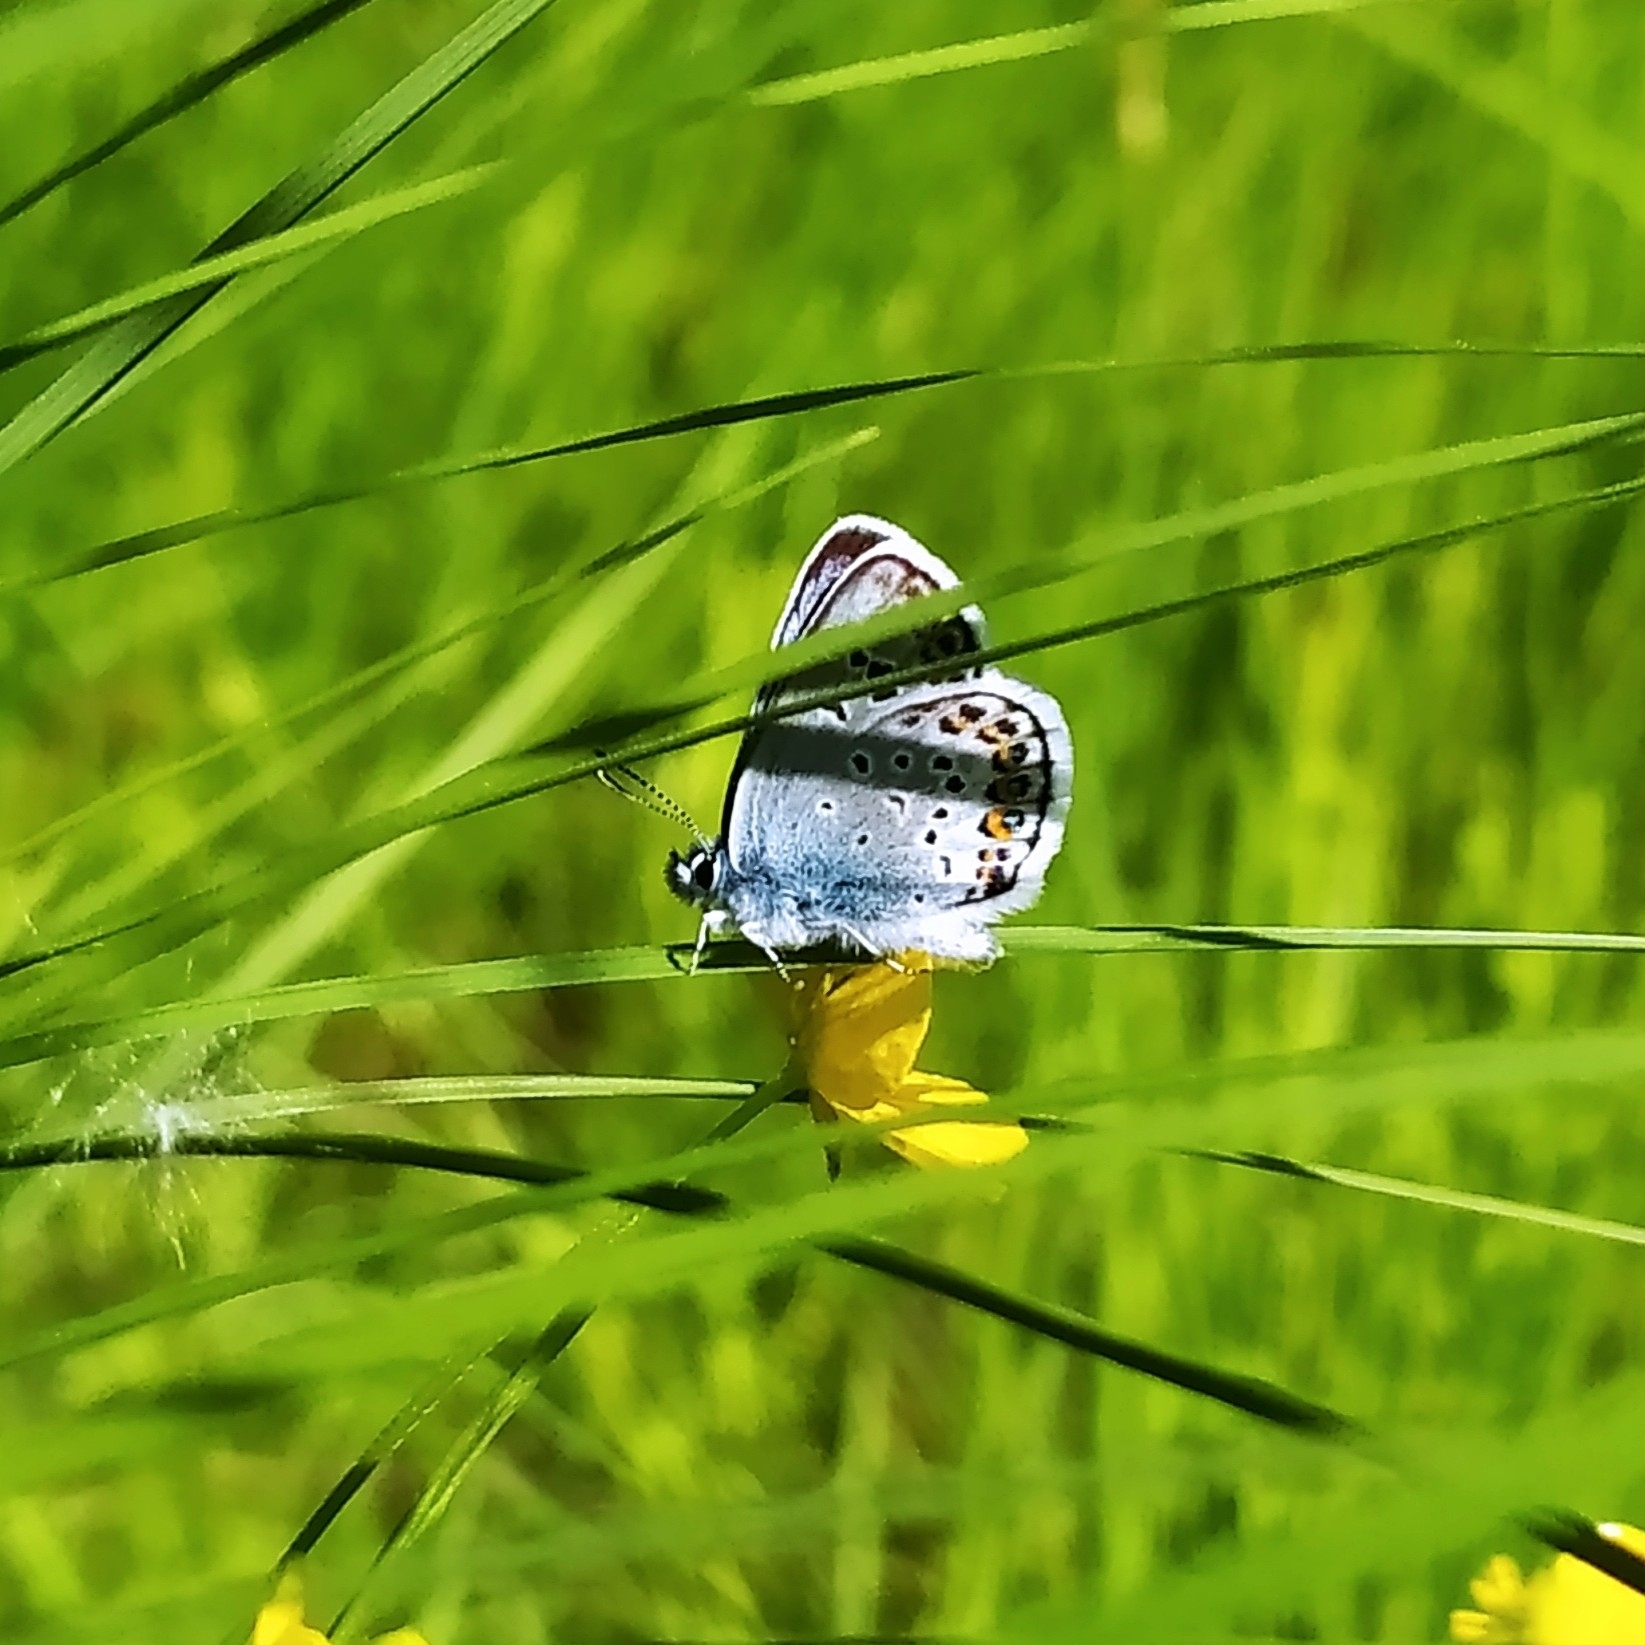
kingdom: Animalia
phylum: Arthropoda
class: Insecta
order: Lepidoptera
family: Lycaenidae
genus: Plebejus
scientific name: Plebejus argus
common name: Silver-studded blue
